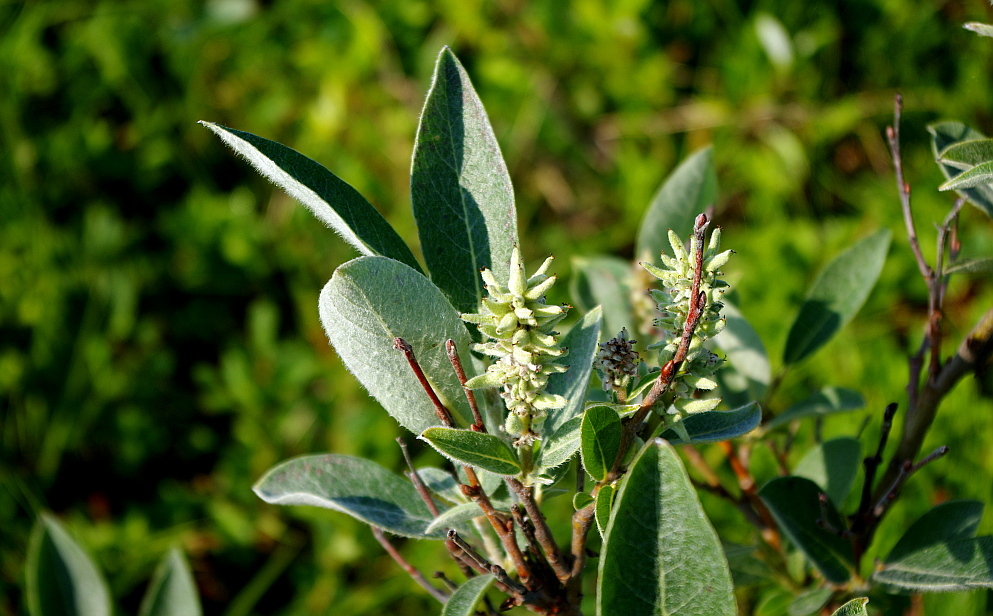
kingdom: Plantae
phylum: Tracheophyta
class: Magnoliopsida
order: Malpighiales
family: Salicaceae
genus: Salix
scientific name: Salix glauca
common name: Glaucous willow
